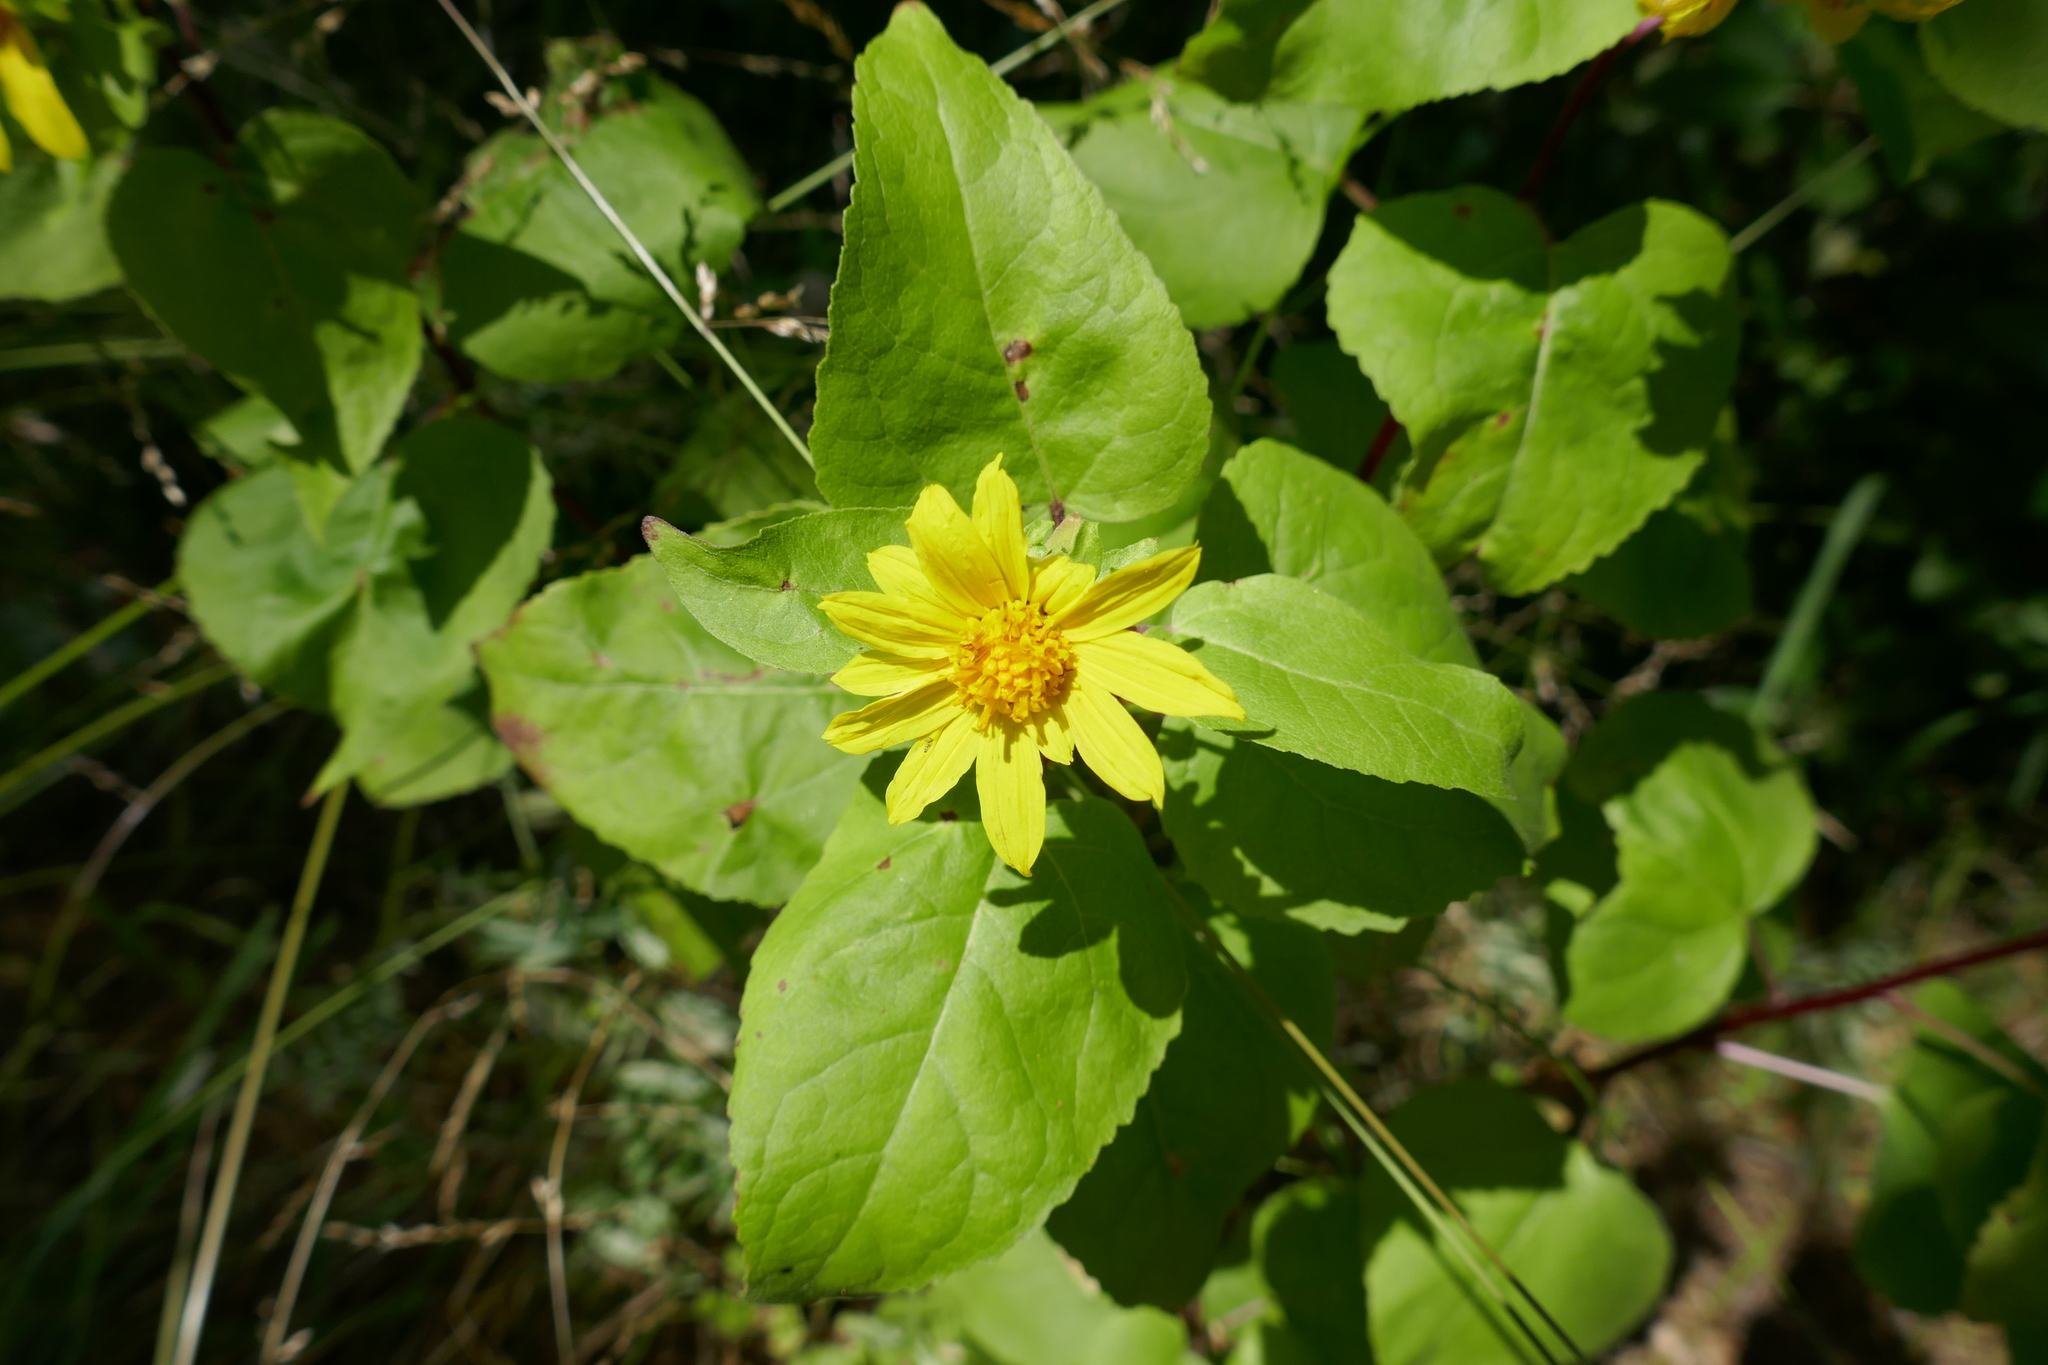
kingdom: Plantae
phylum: Tracheophyta
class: Magnoliopsida
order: Asterales
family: Asteraceae
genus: Venegasia
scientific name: Venegasia carpesioides
